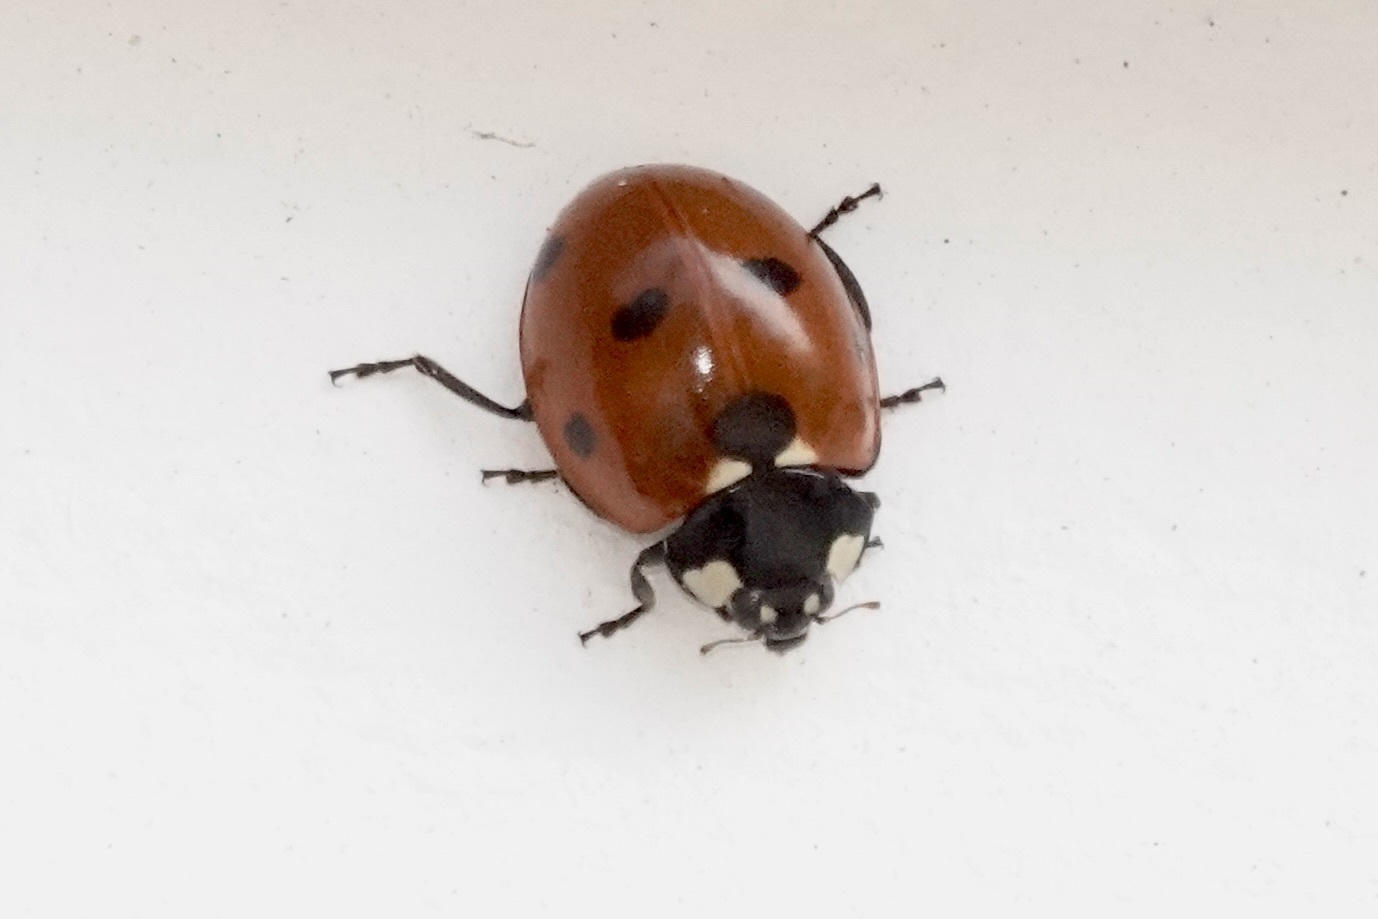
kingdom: Animalia
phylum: Arthropoda
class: Insecta
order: Coleoptera
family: Coccinellidae
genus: Coccinella
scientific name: Coccinella septempunctata
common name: Sevenspotted lady beetle
